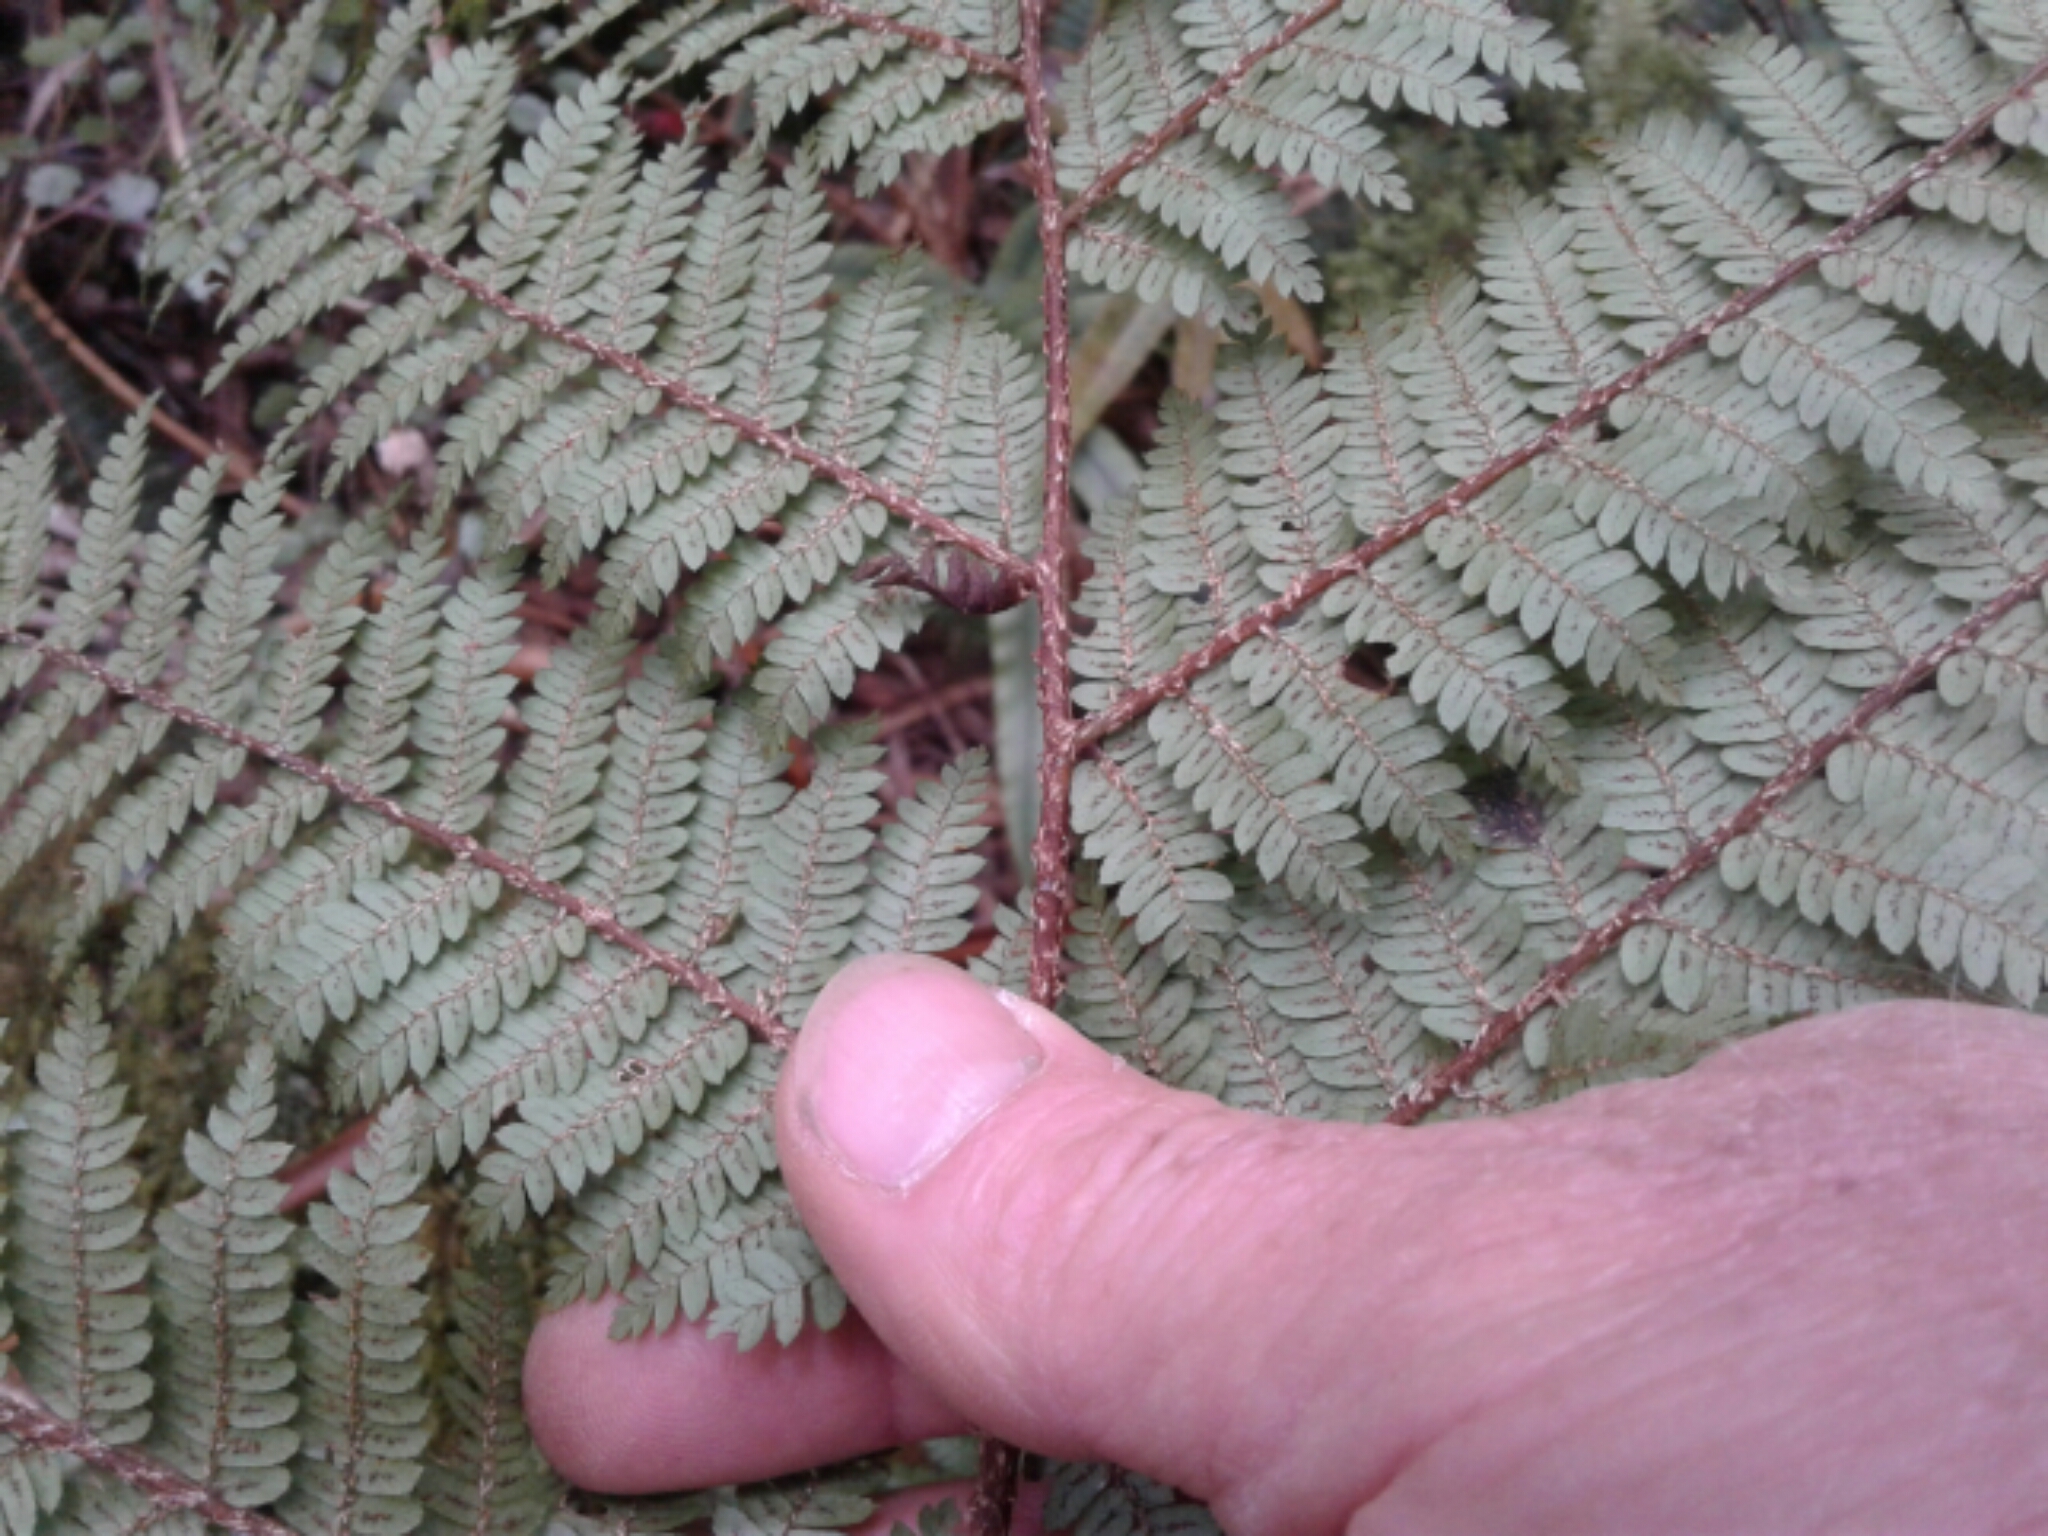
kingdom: Plantae
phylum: Tracheophyta
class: Polypodiopsida
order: Cyatheales
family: Cyatheaceae
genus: Cyathea
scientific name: Cyathea
